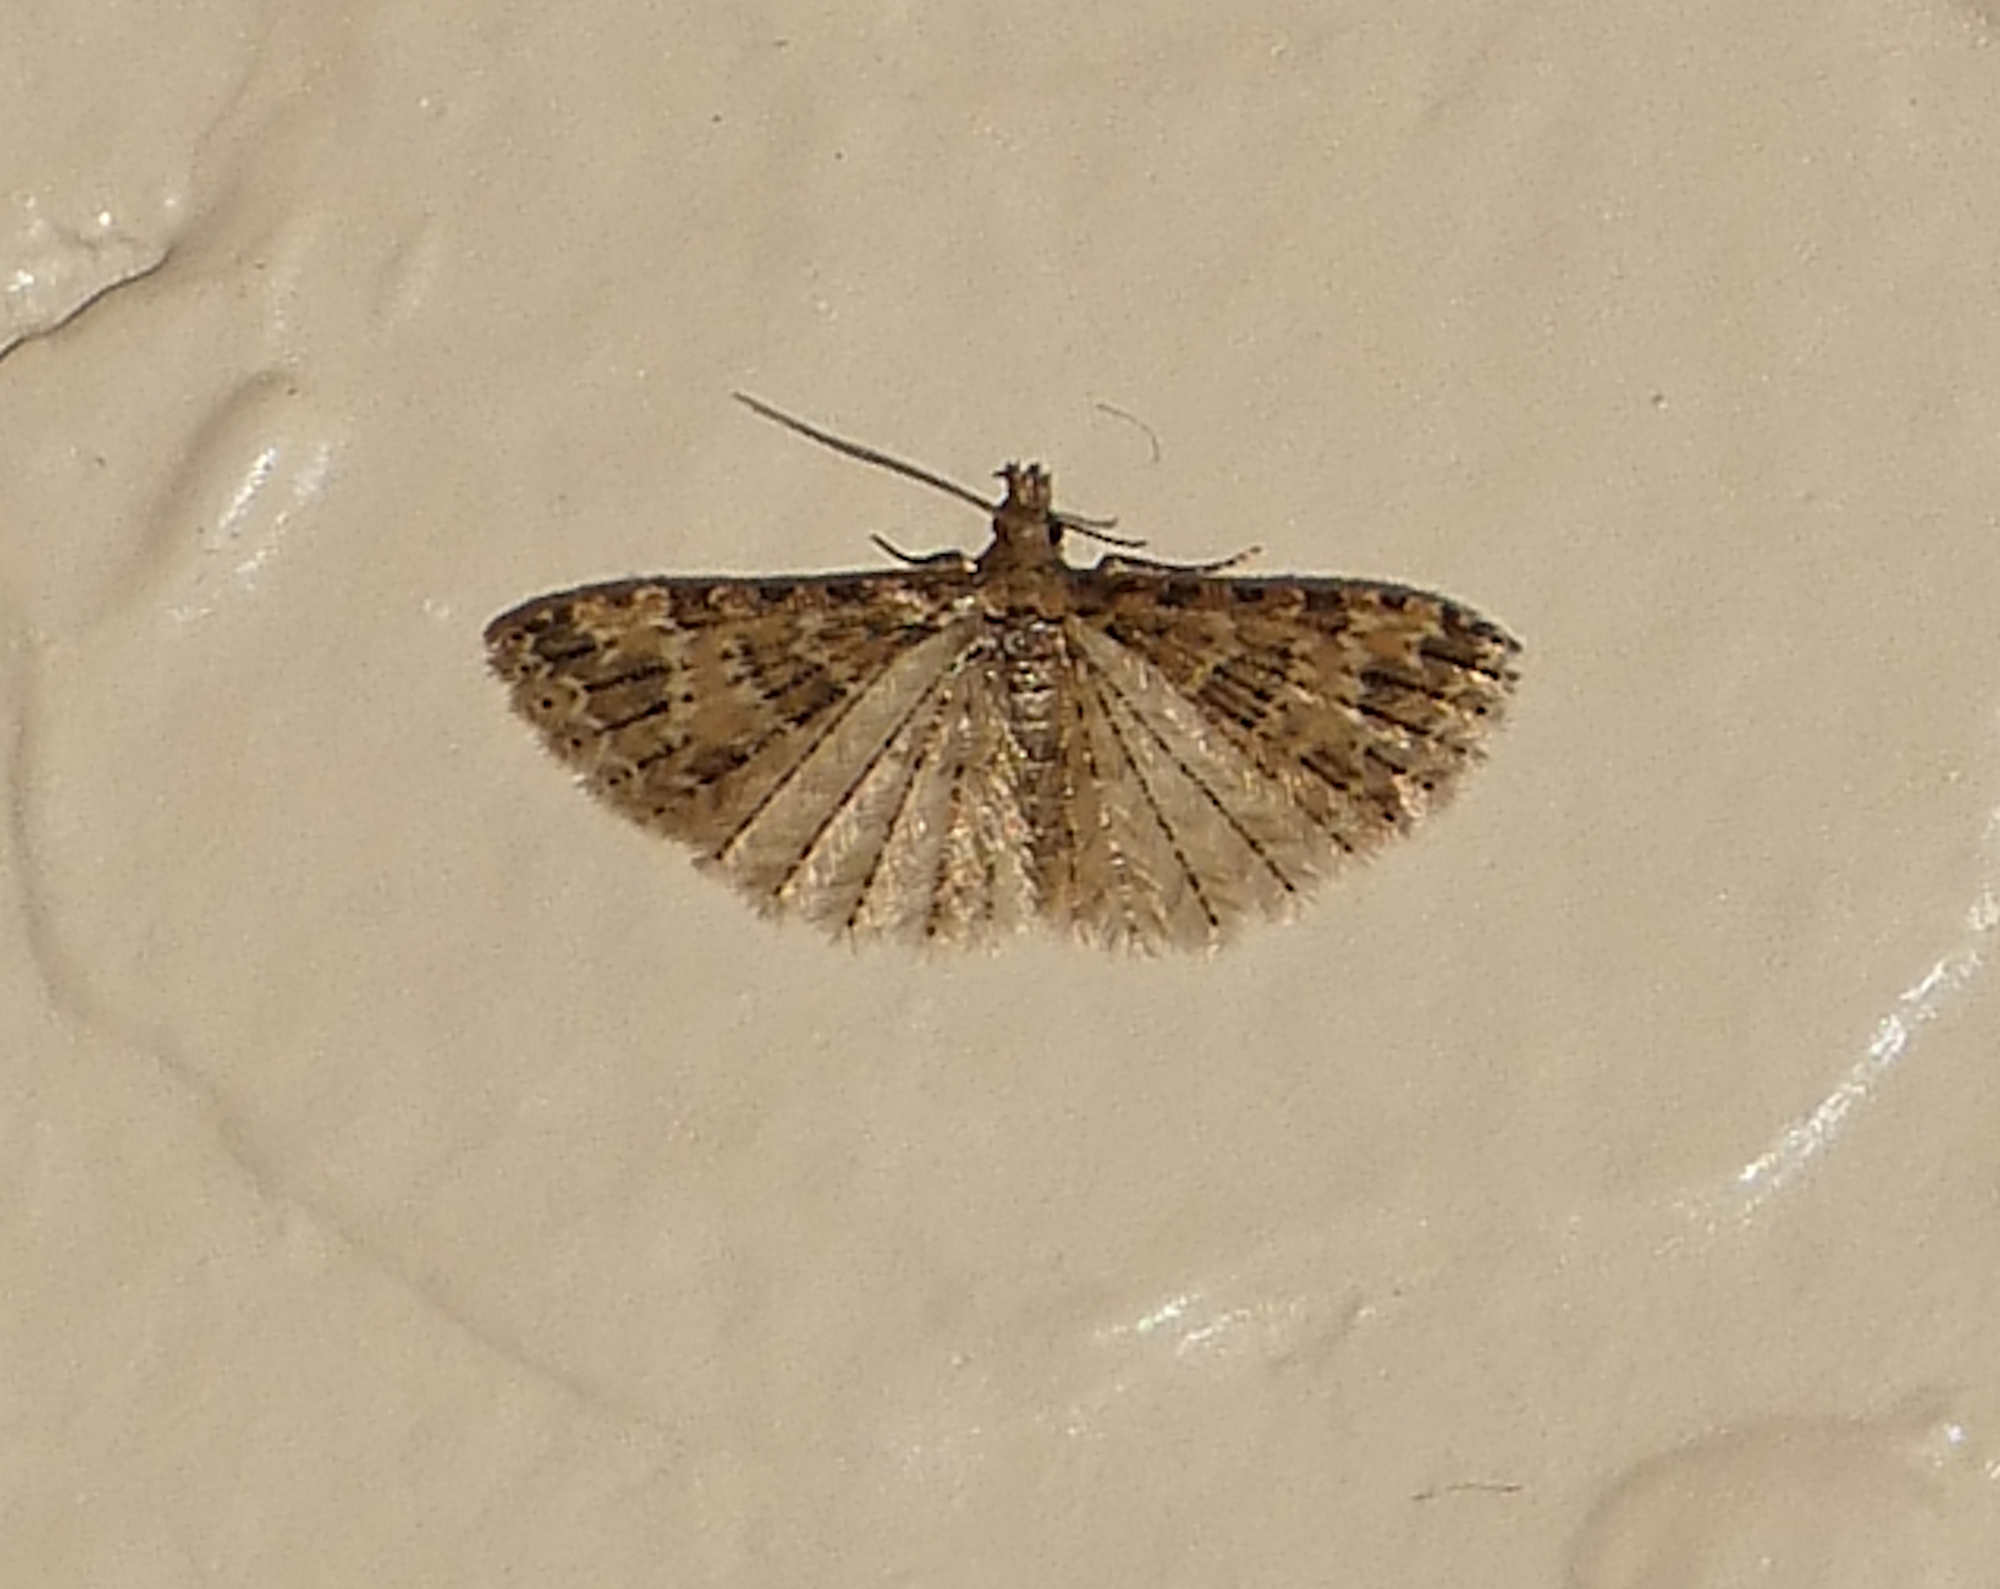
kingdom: Animalia
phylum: Arthropoda
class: Insecta
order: Lepidoptera
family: Alucitidae
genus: Alucita
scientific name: Alucita montana
